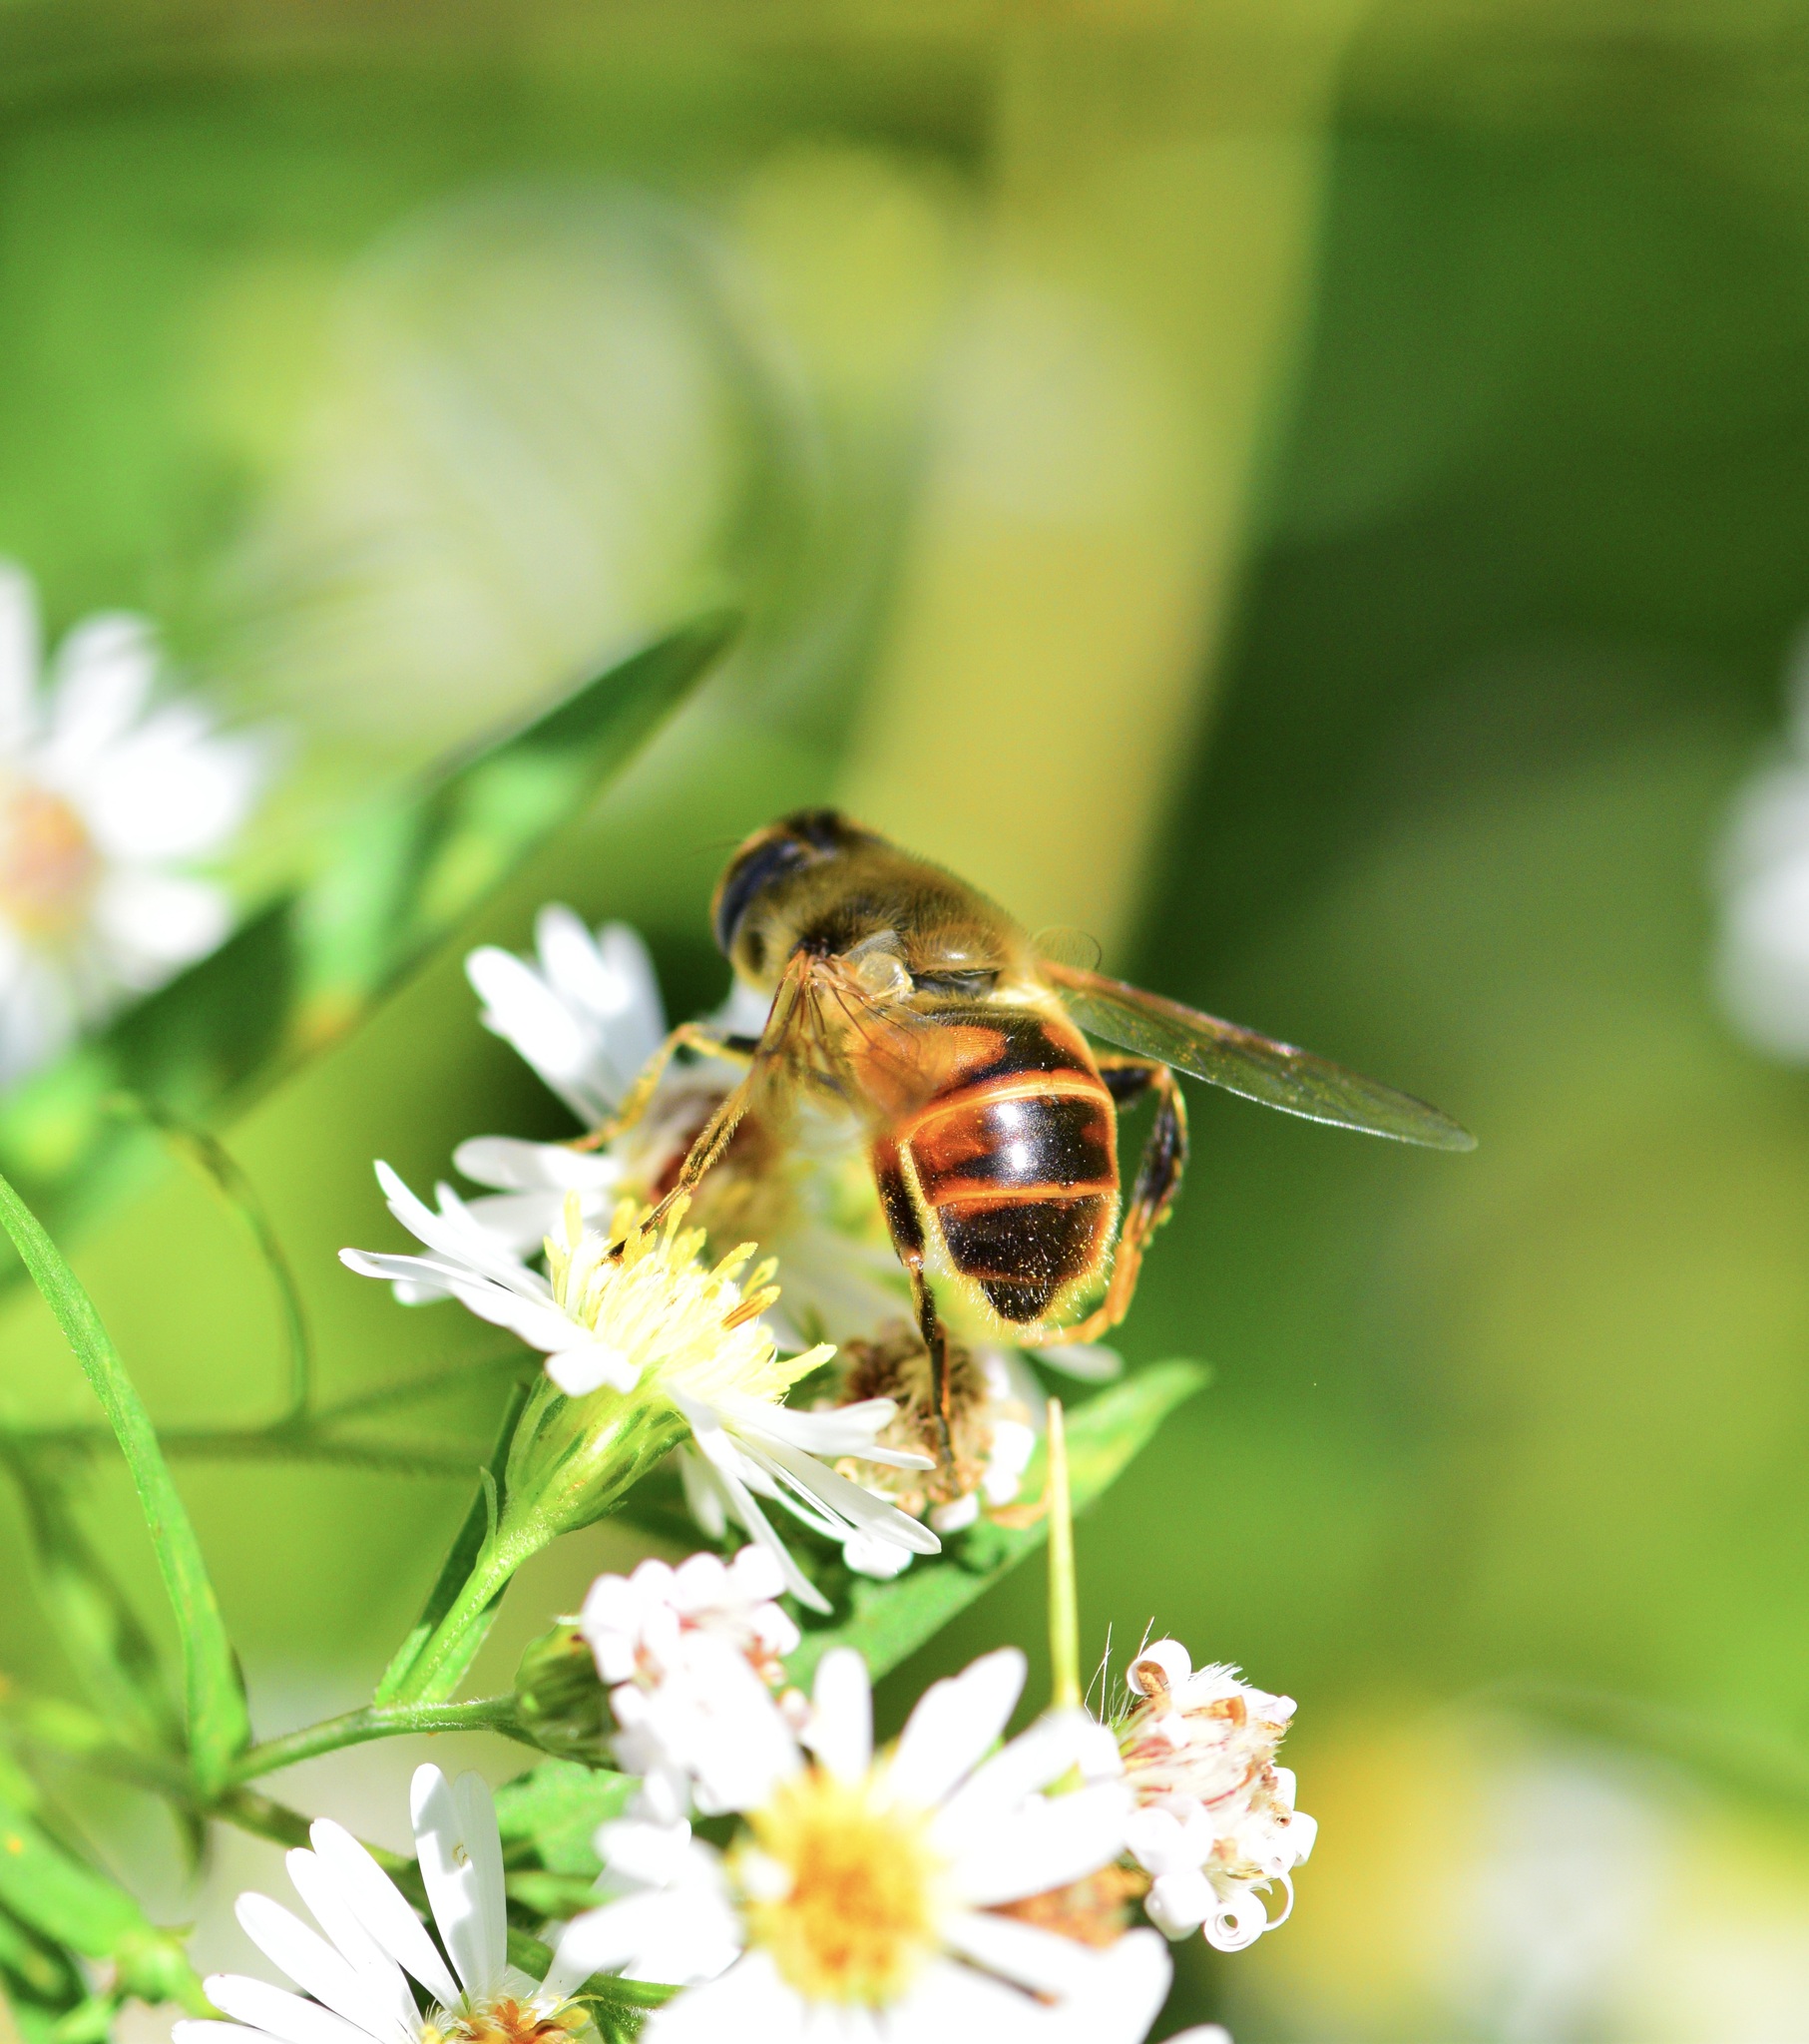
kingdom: Animalia
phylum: Arthropoda
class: Insecta
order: Diptera
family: Syrphidae
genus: Eristalis
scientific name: Eristalis tenax
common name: Drone fly
